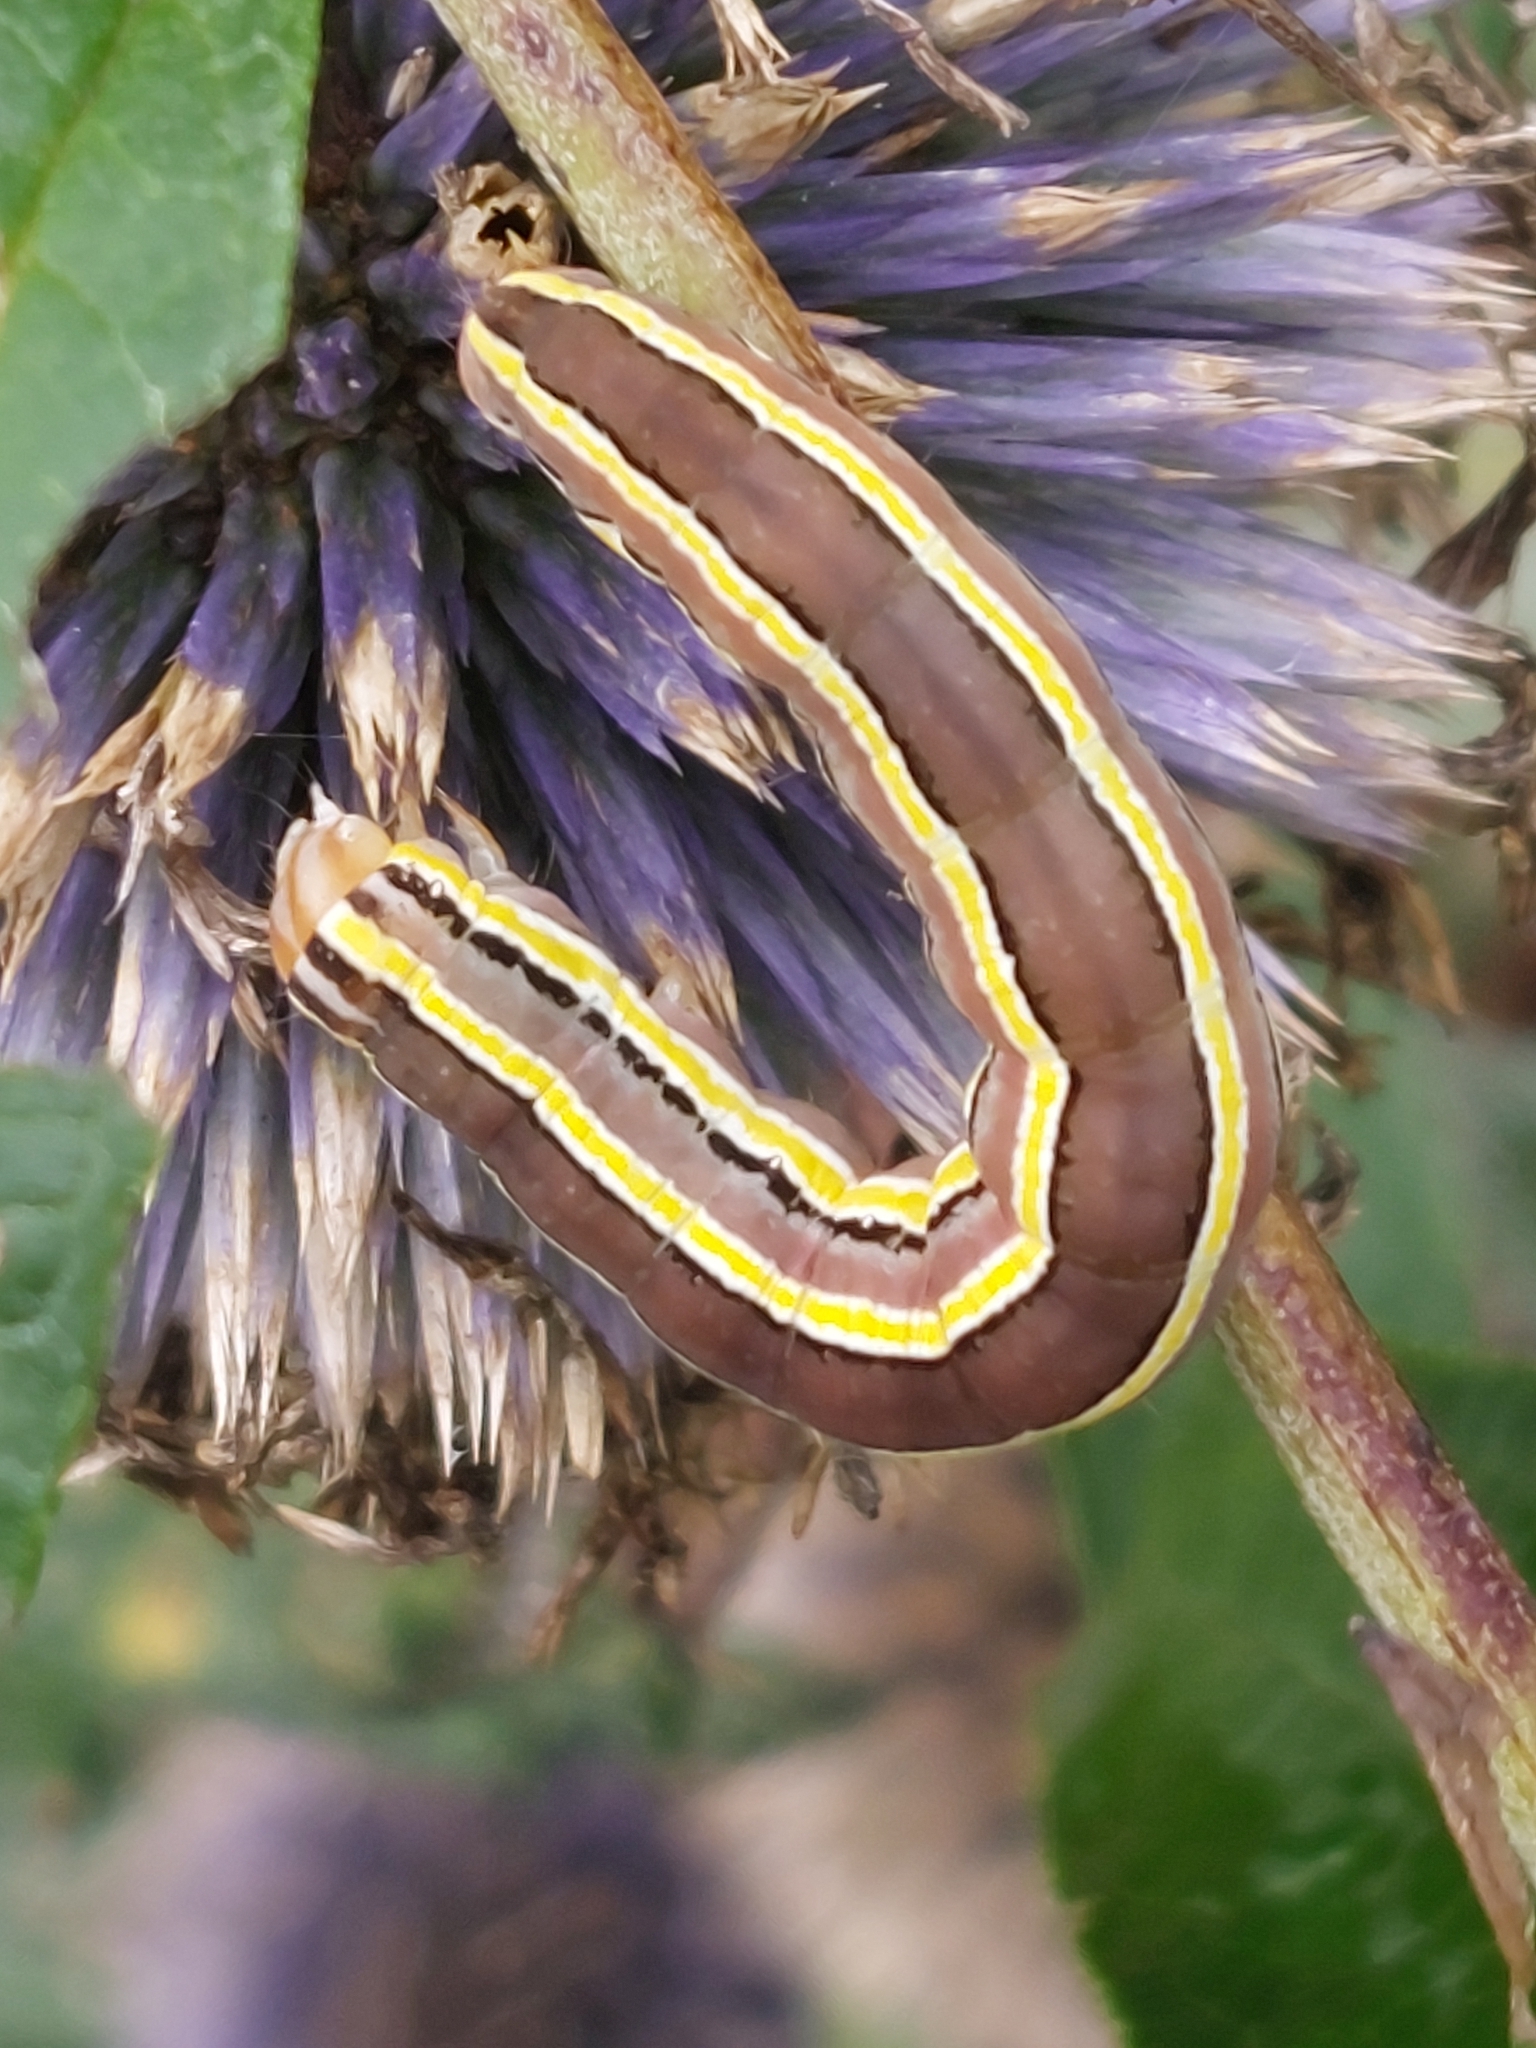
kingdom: Animalia
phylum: Arthropoda
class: Insecta
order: Lepidoptera
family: Noctuidae
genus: Trichordestra
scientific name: Trichordestra legitima
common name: Striped garden caterpillar
